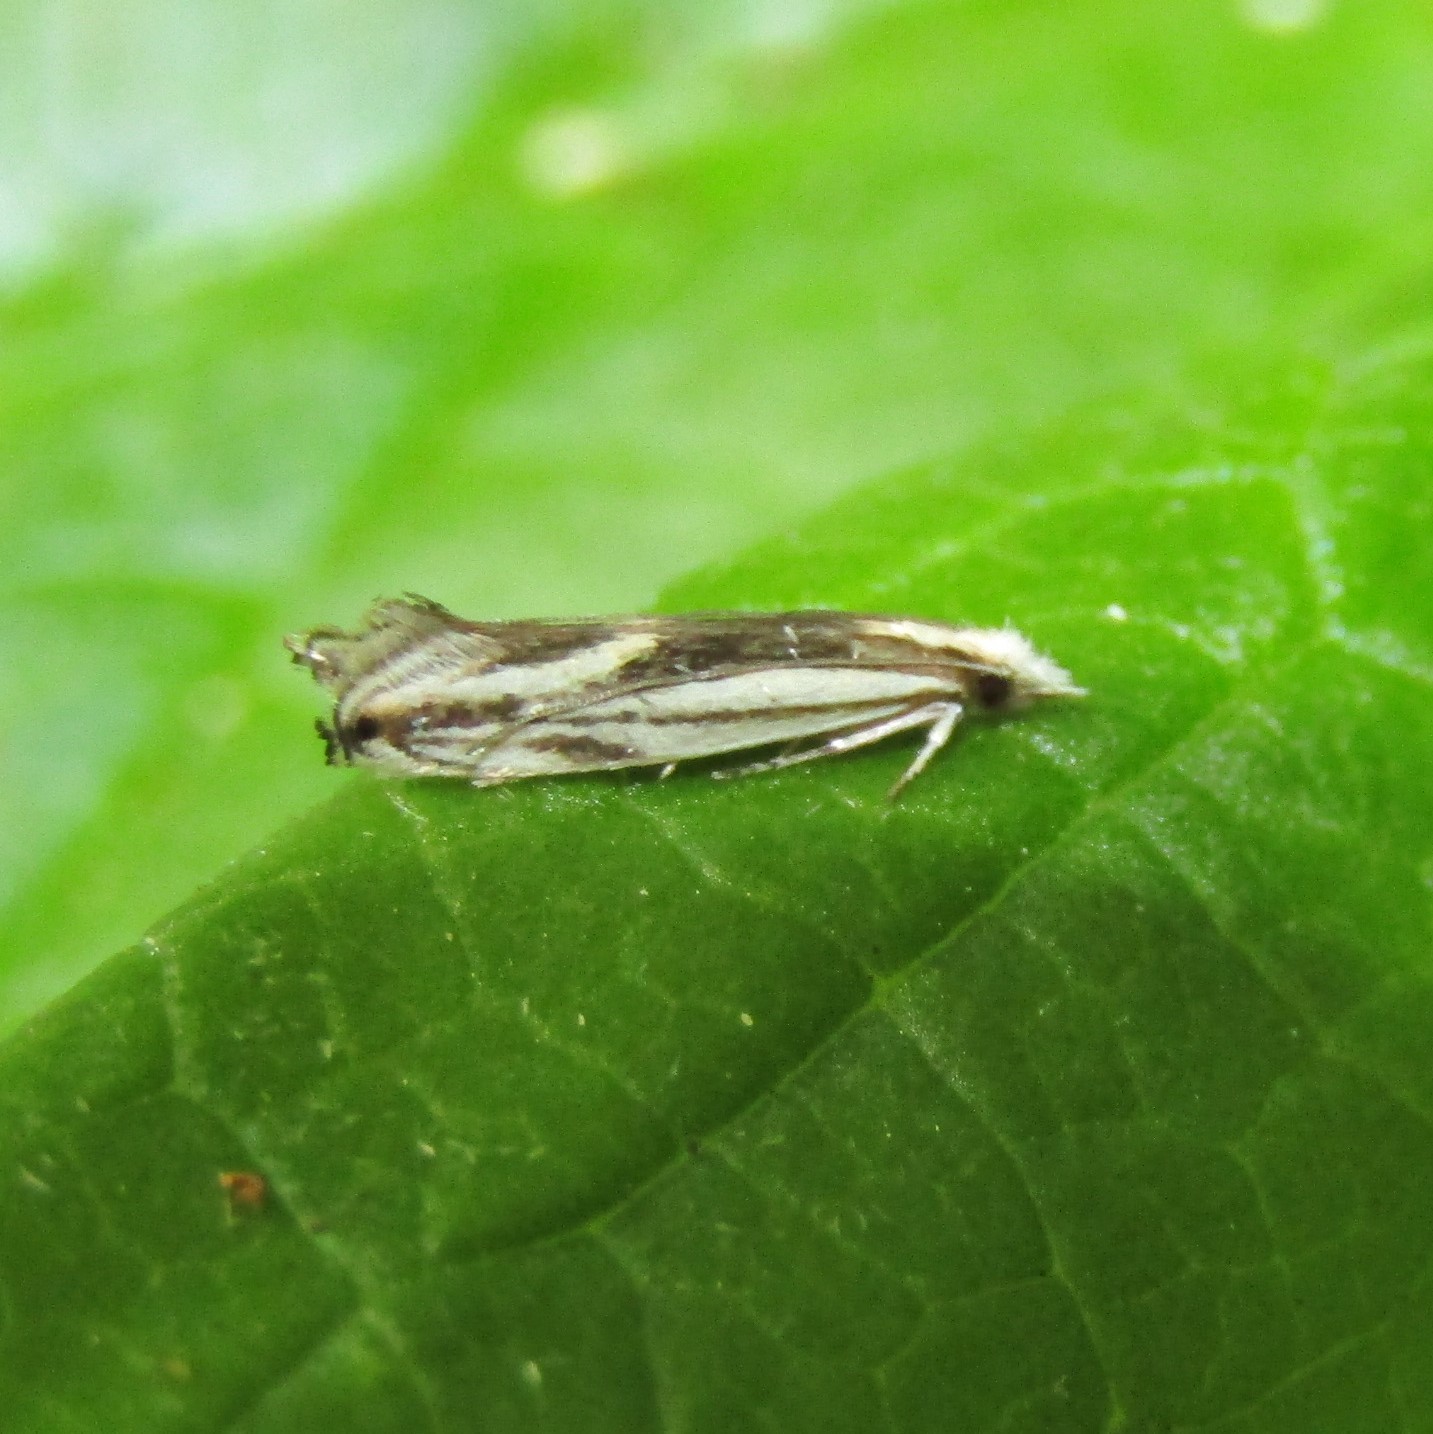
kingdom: Animalia
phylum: Arthropoda
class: Insecta
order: Lepidoptera
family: Tineidae
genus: Erechthias
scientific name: Erechthias chasmatias
